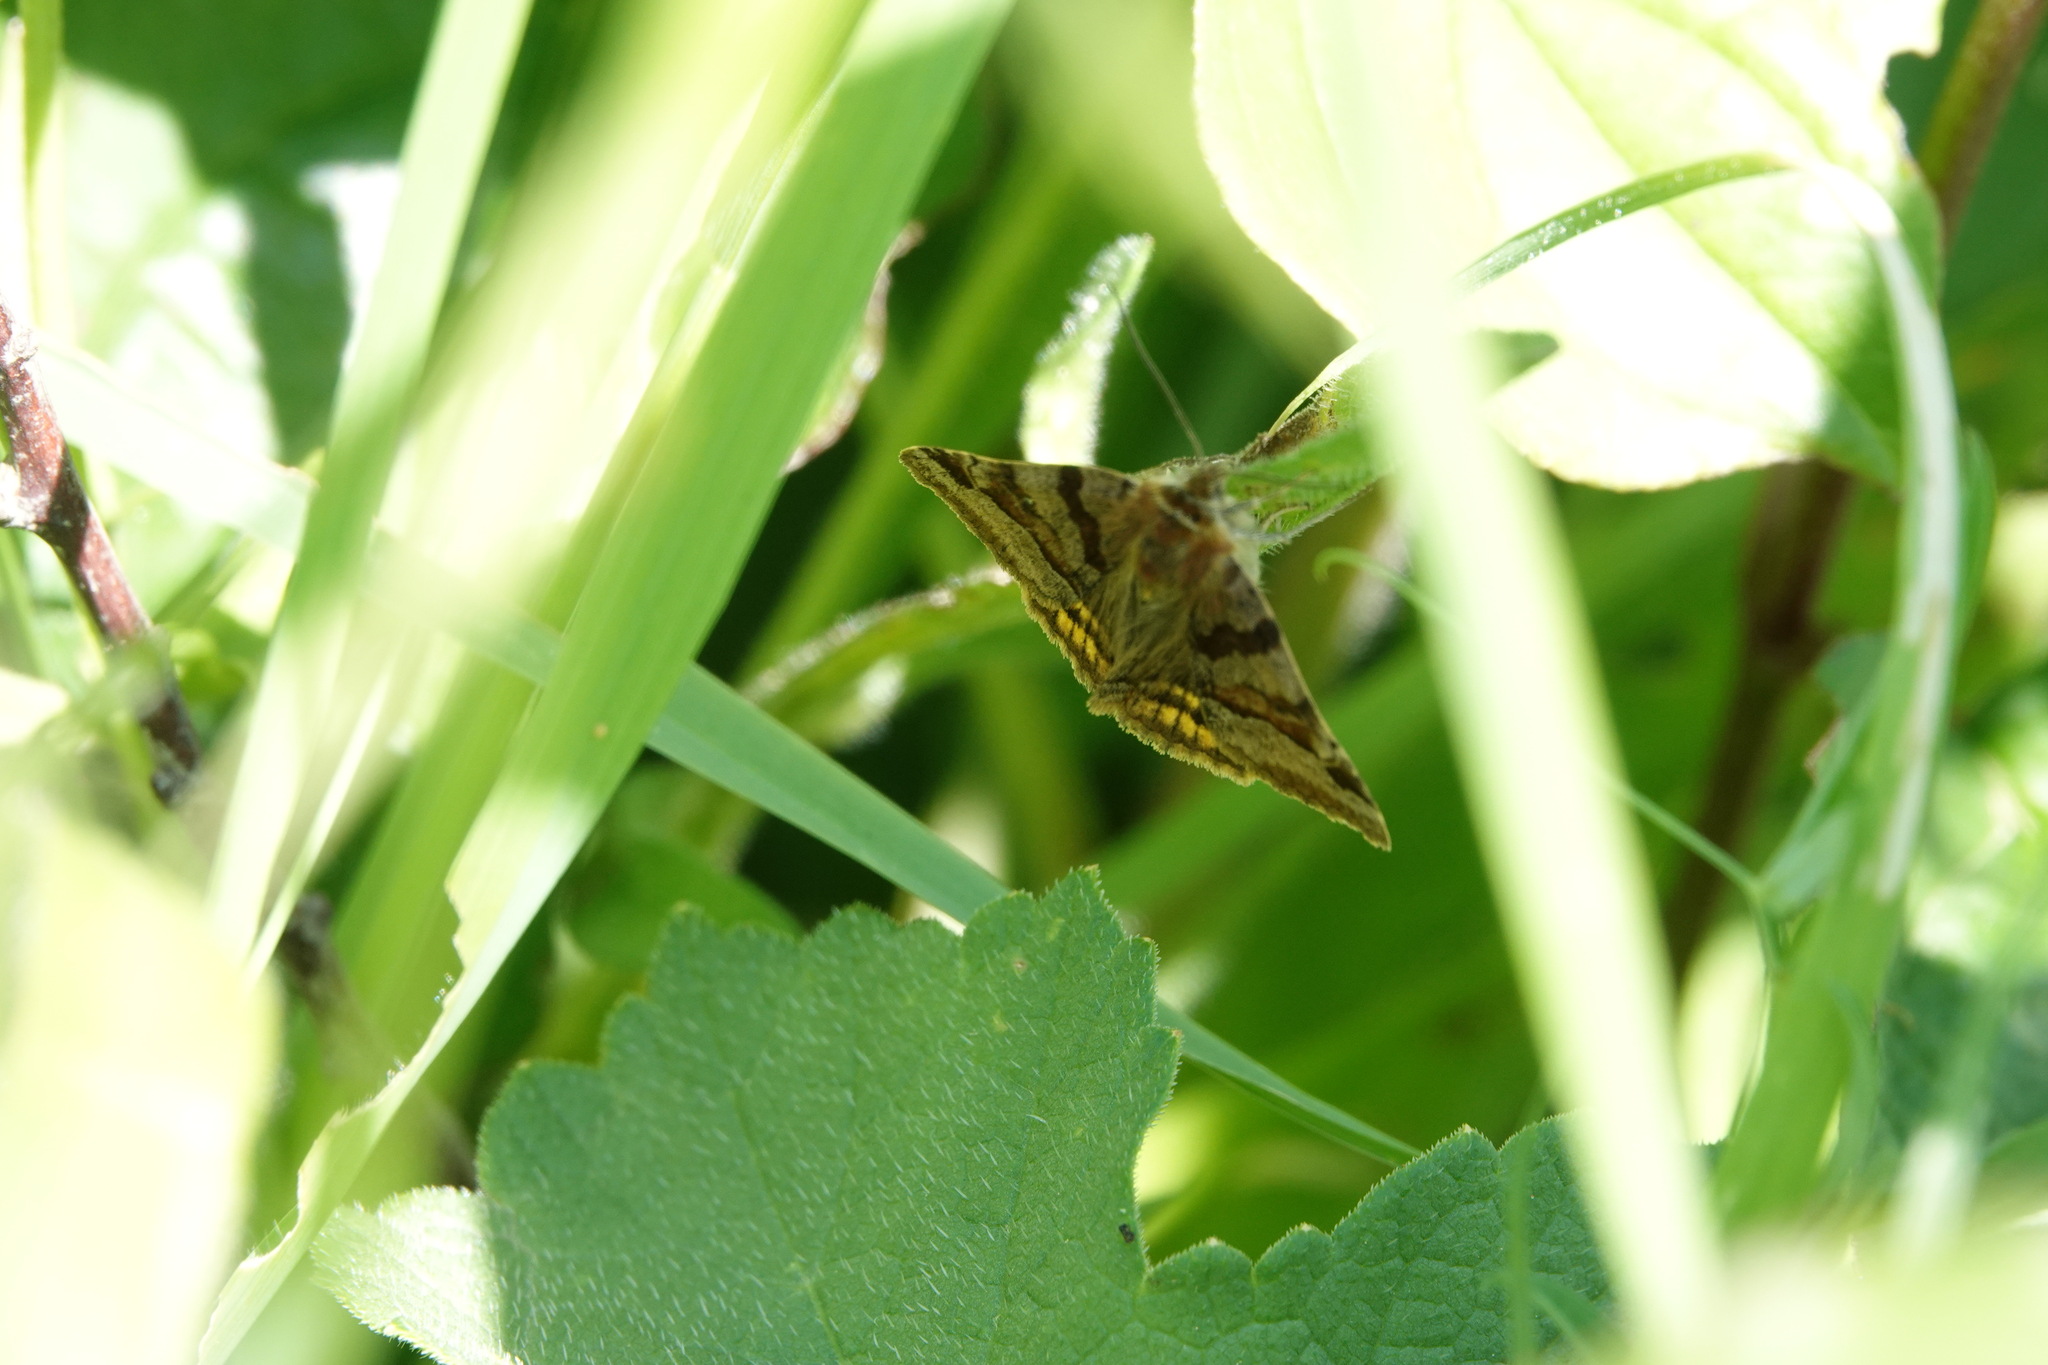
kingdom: Animalia
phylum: Arthropoda
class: Insecta
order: Lepidoptera
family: Erebidae
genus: Euclidia
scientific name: Euclidia glyphica
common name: Burnet companion
